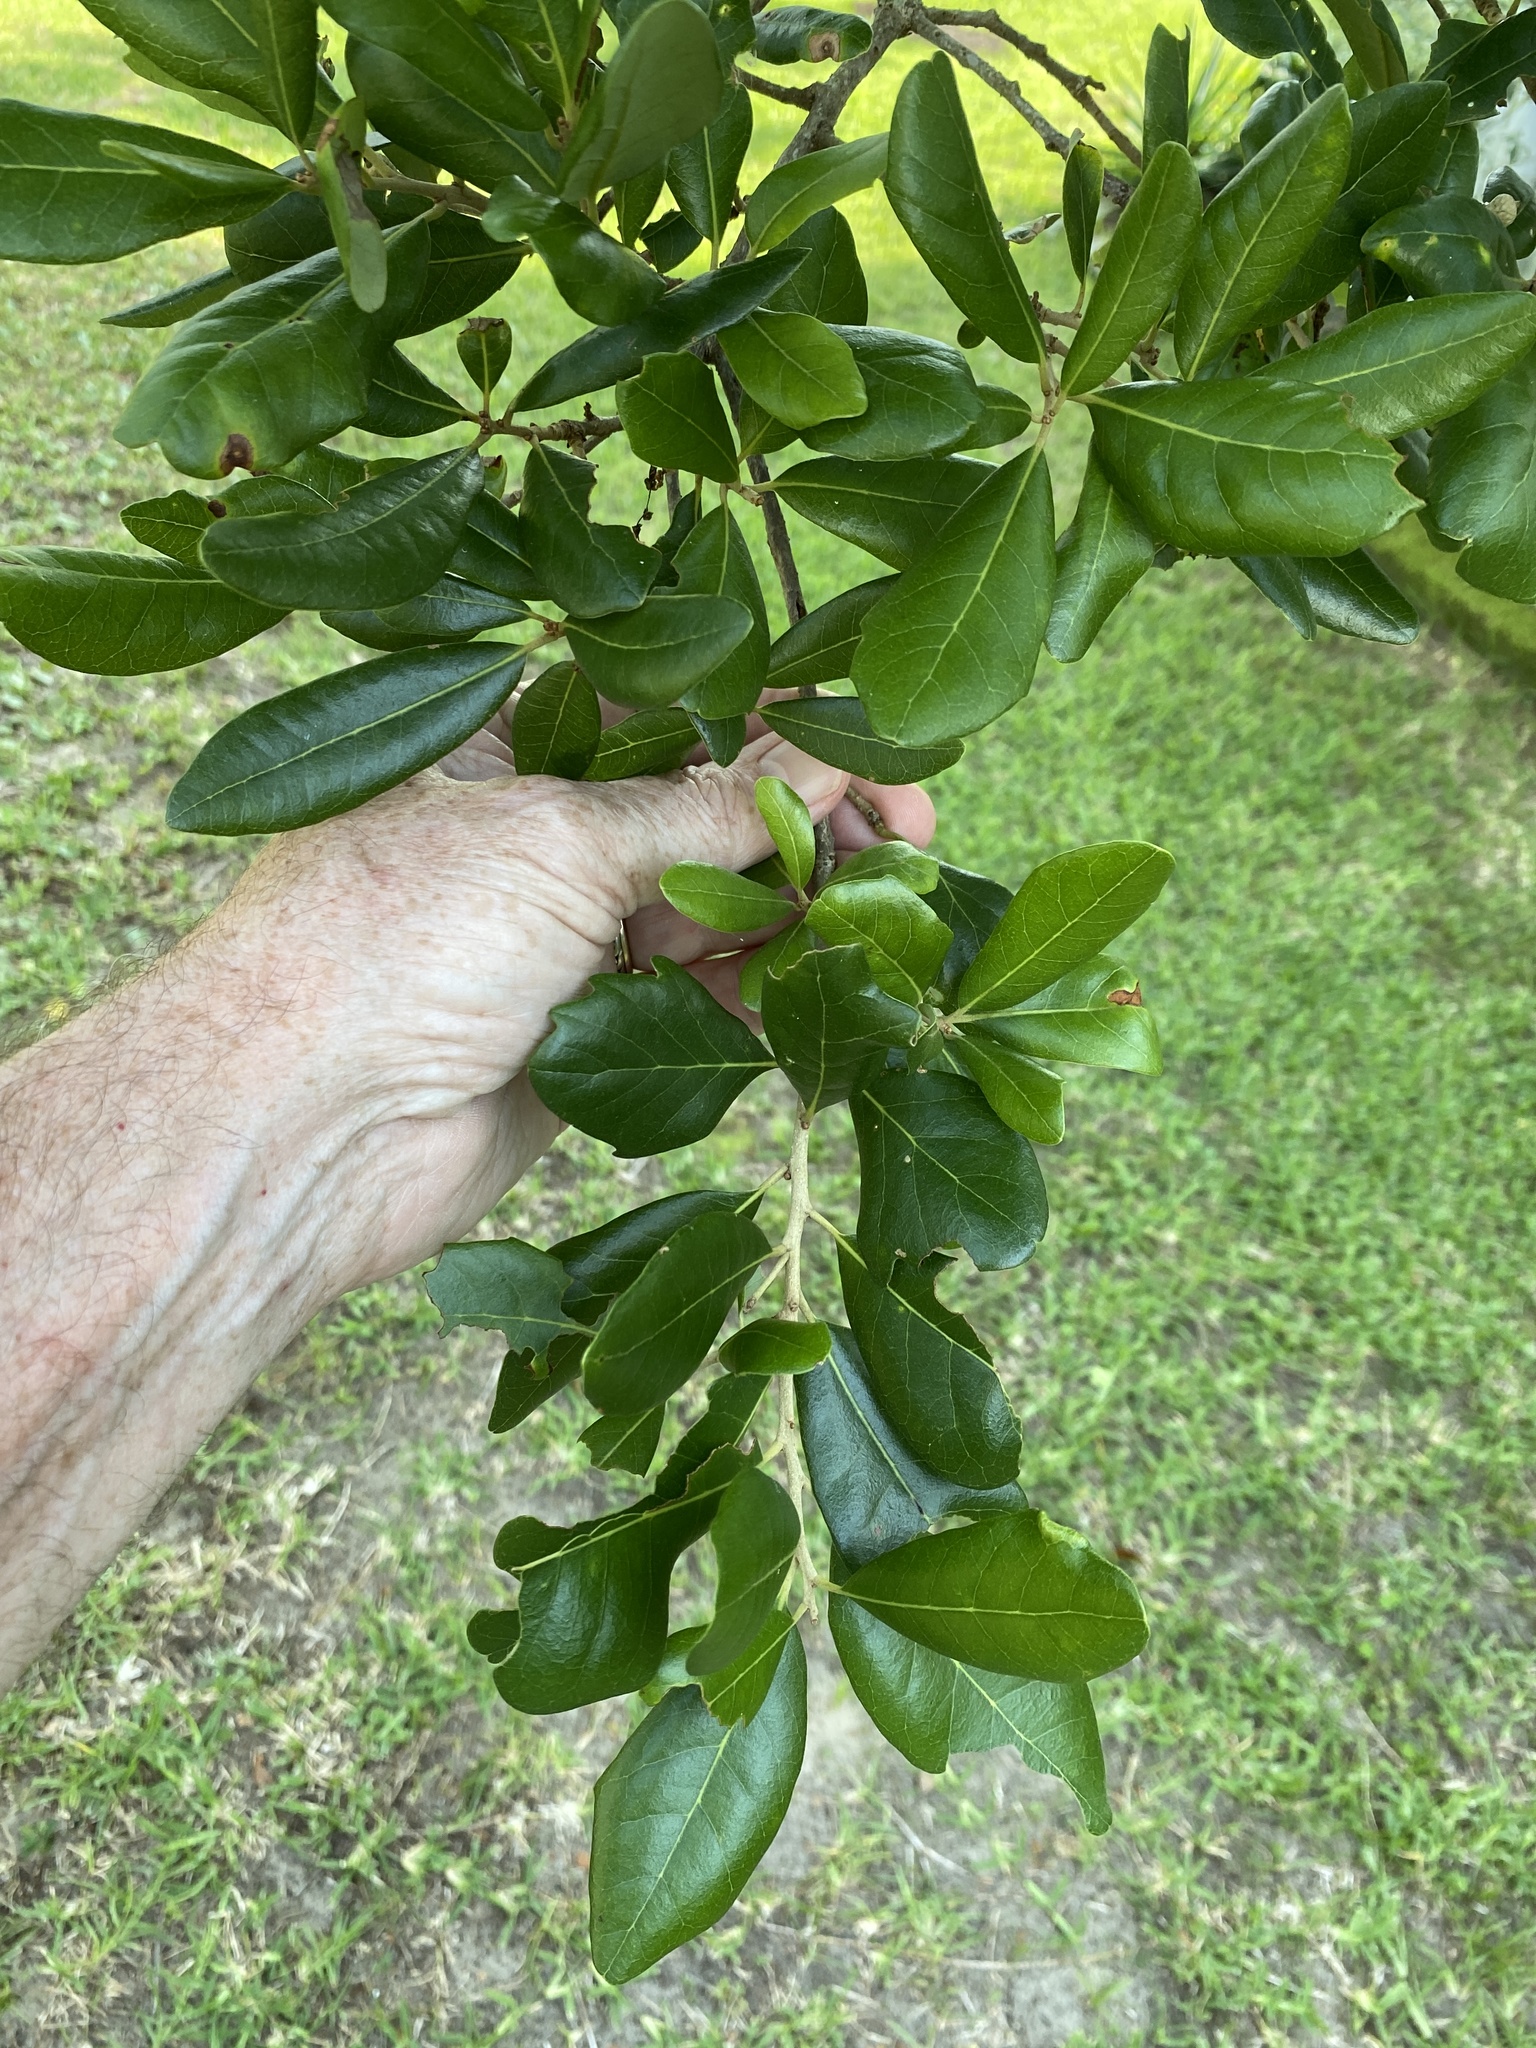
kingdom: Plantae
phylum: Tracheophyta
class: Magnoliopsida
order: Fagales
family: Fagaceae
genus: Quercus
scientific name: Quercus virginiana
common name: Southern live oak
